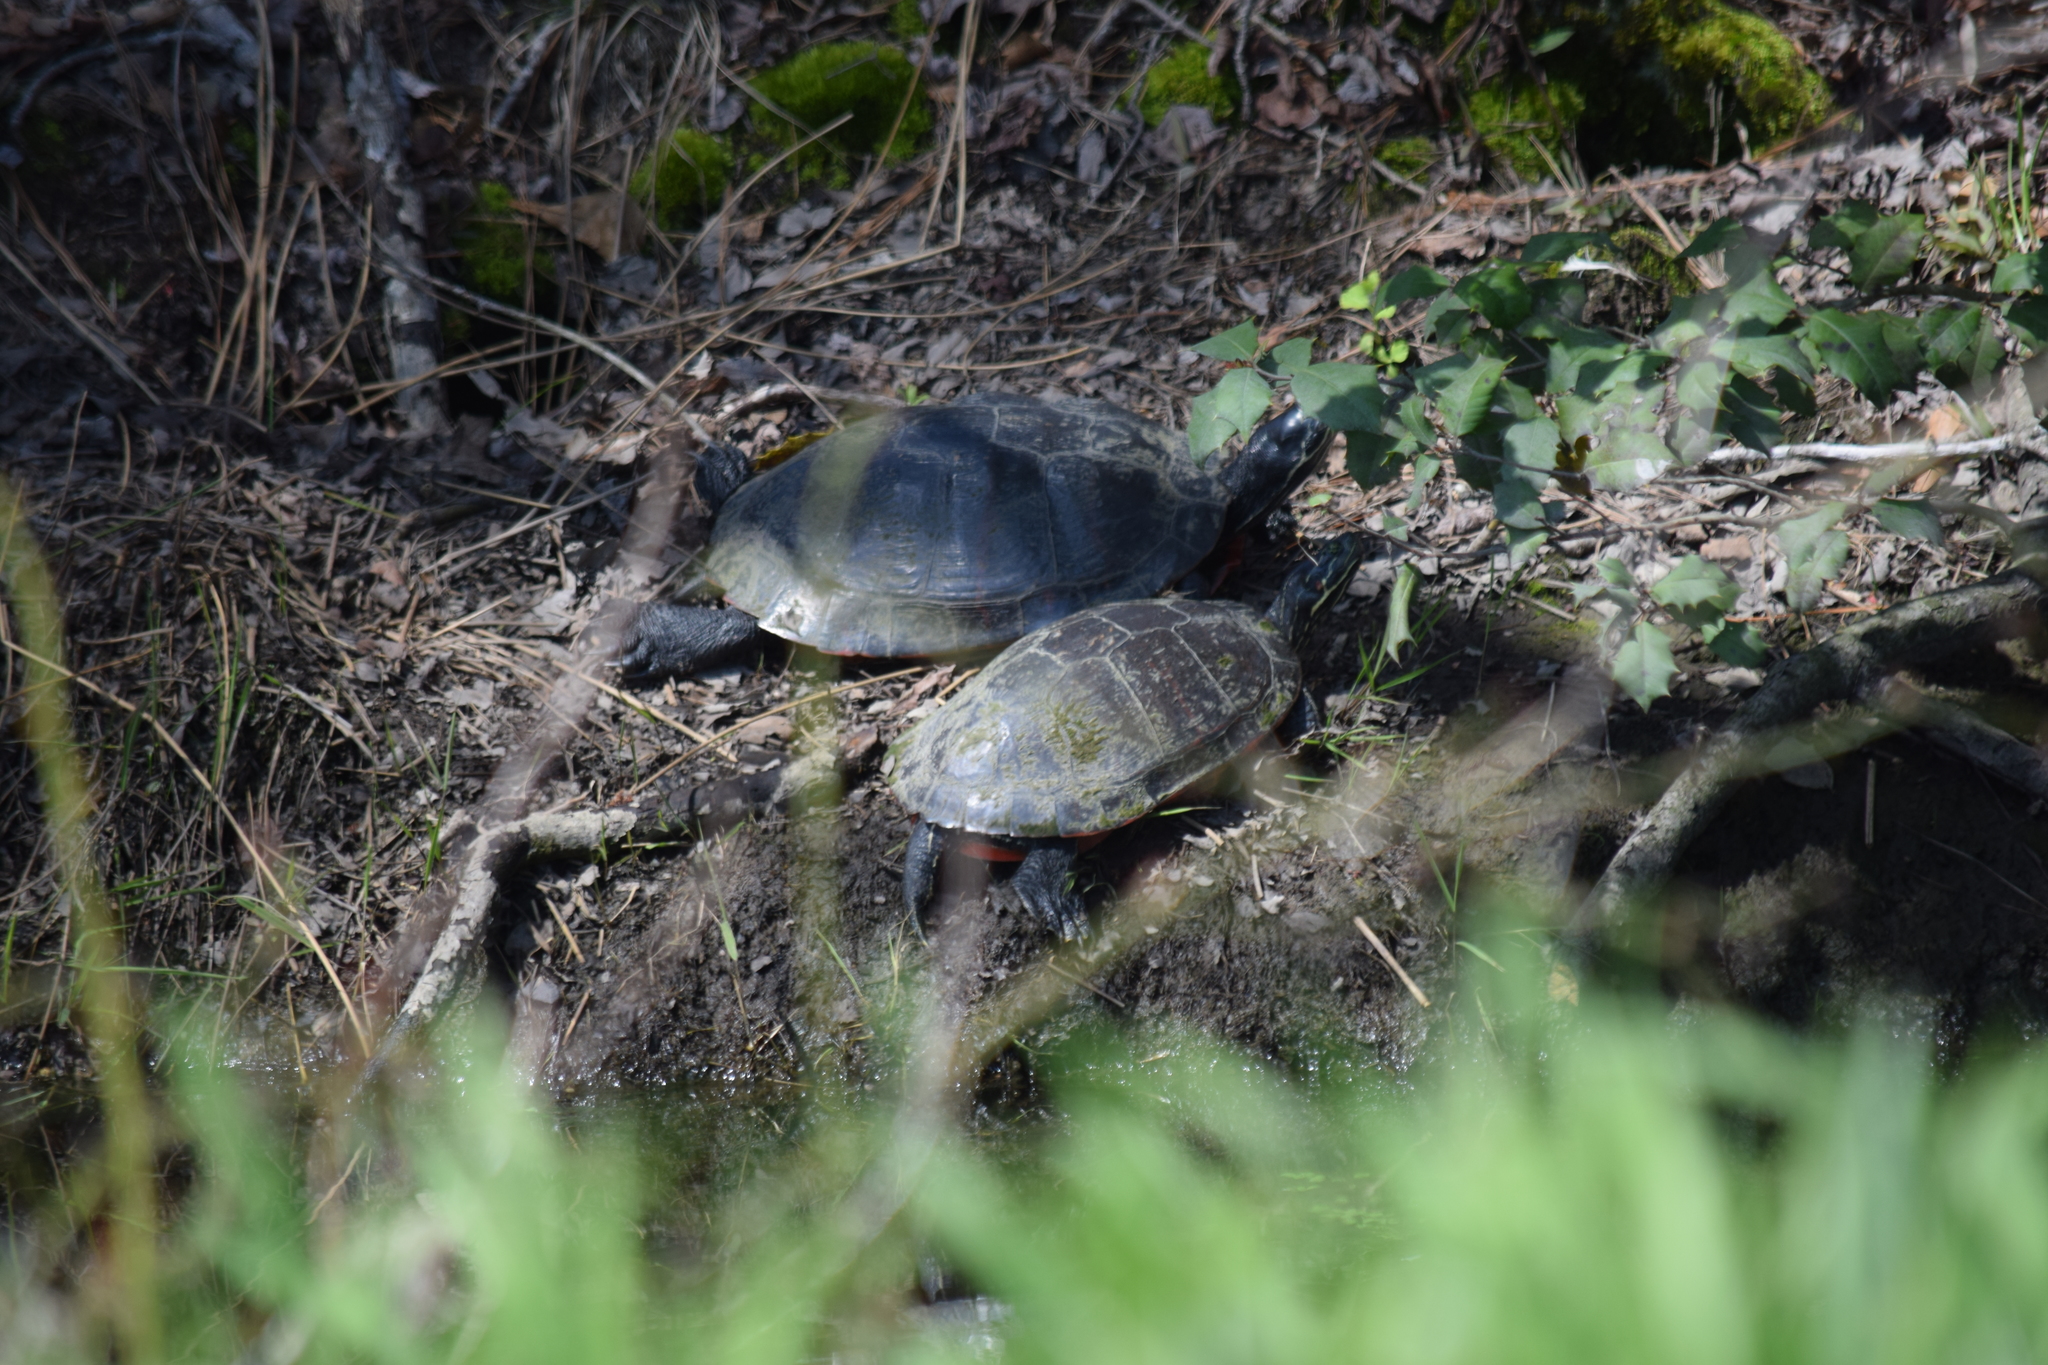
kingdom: Animalia
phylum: Chordata
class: Testudines
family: Emydidae
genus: Pseudemys
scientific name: Pseudemys rubriventris
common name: American red-bellied turtle
